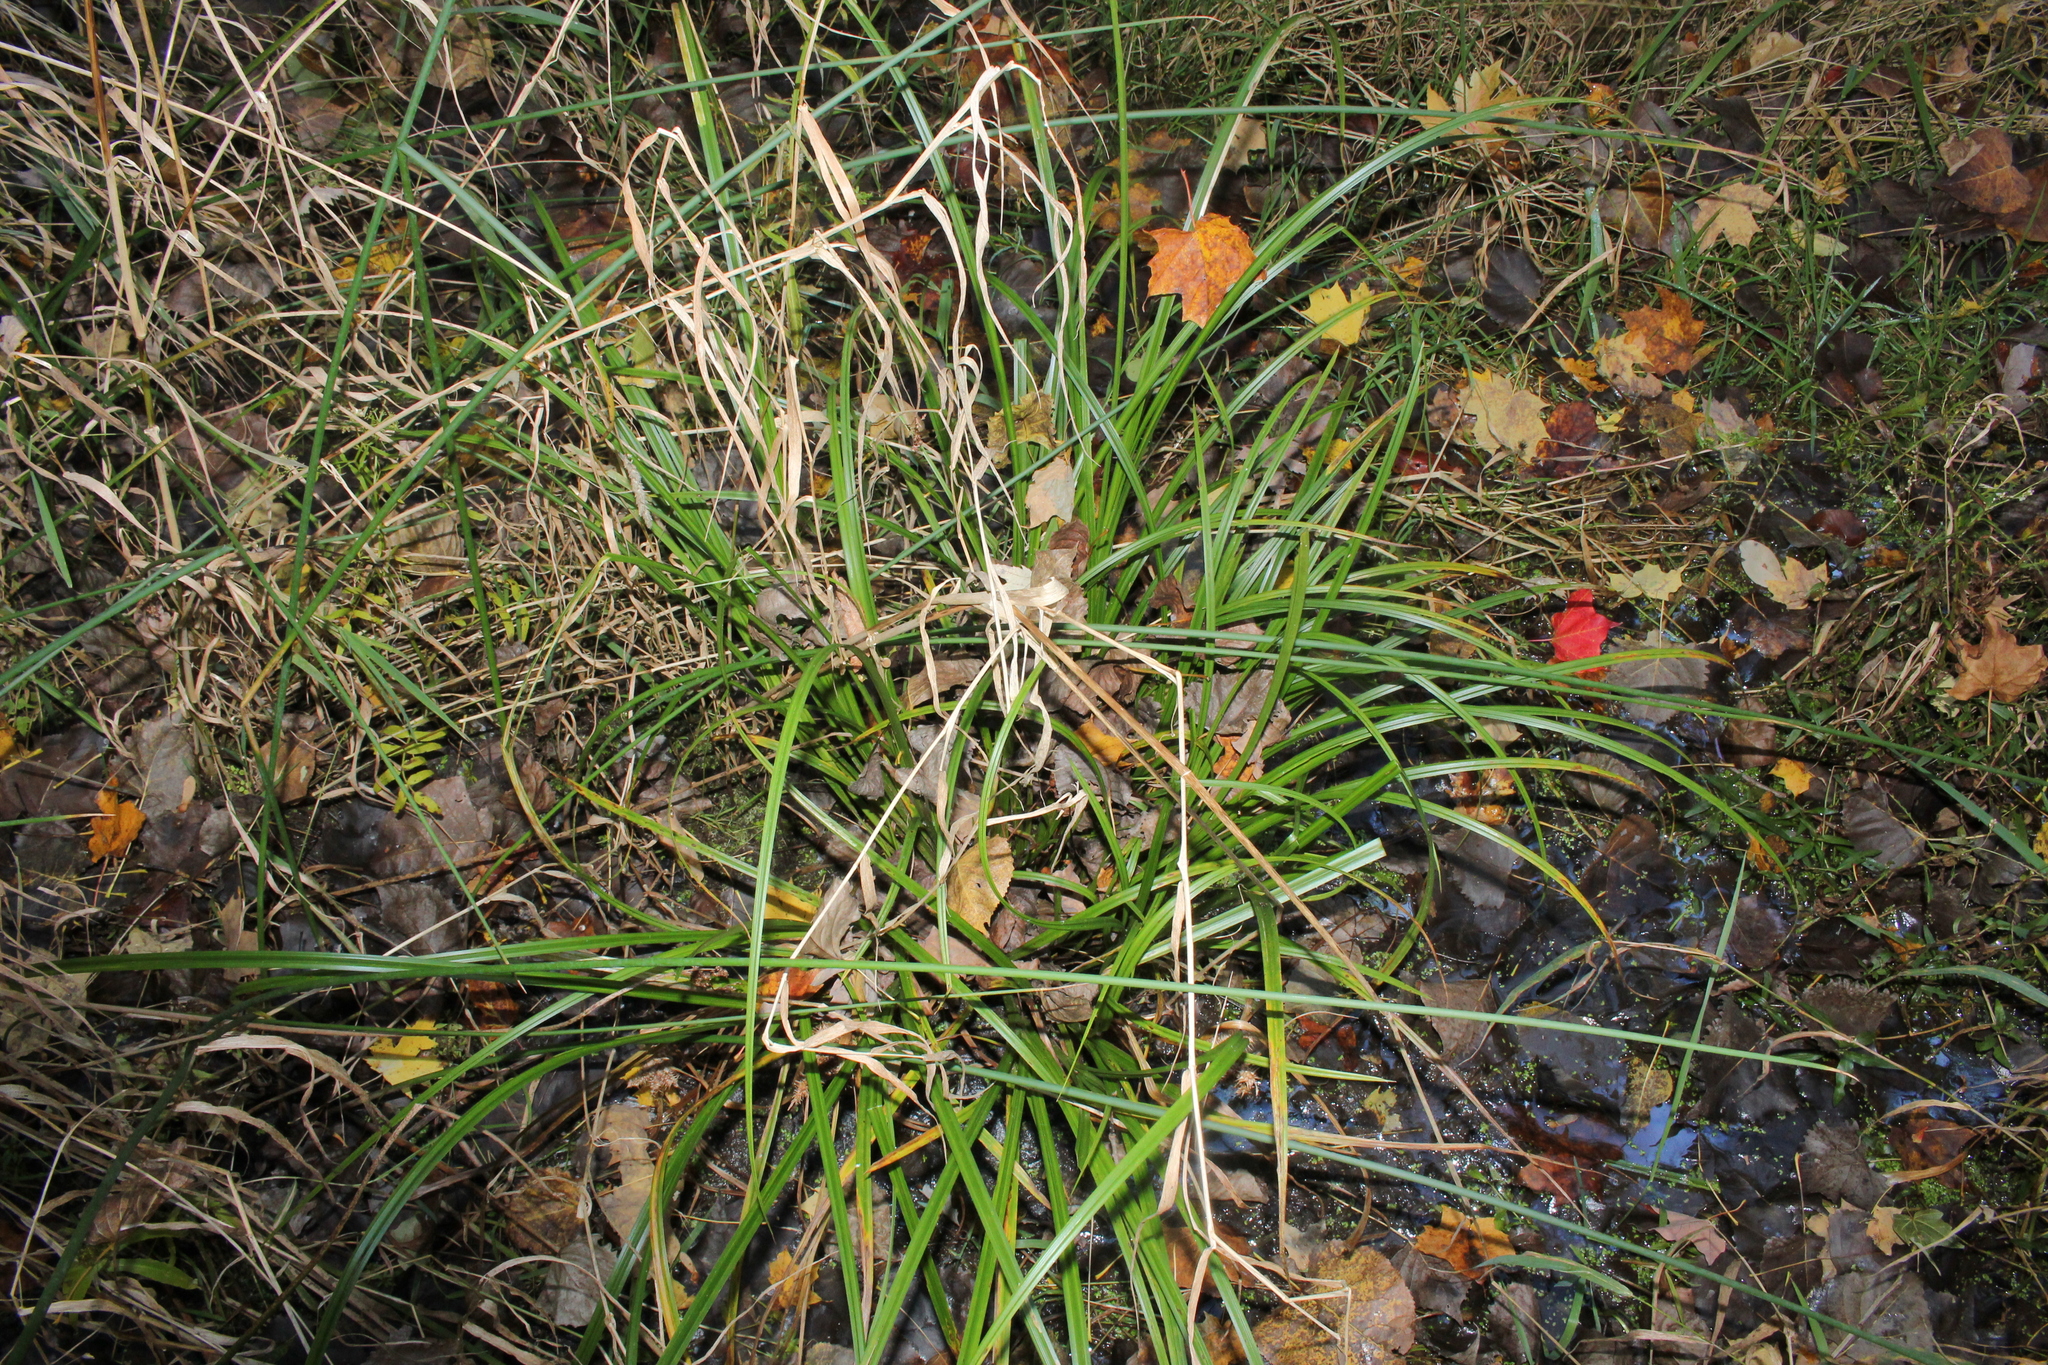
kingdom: Plantae
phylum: Tracheophyta
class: Liliopsida
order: Poales
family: Cyperaceae
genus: Carex
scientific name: Carex retrorsa
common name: Knot-sheath sedge
